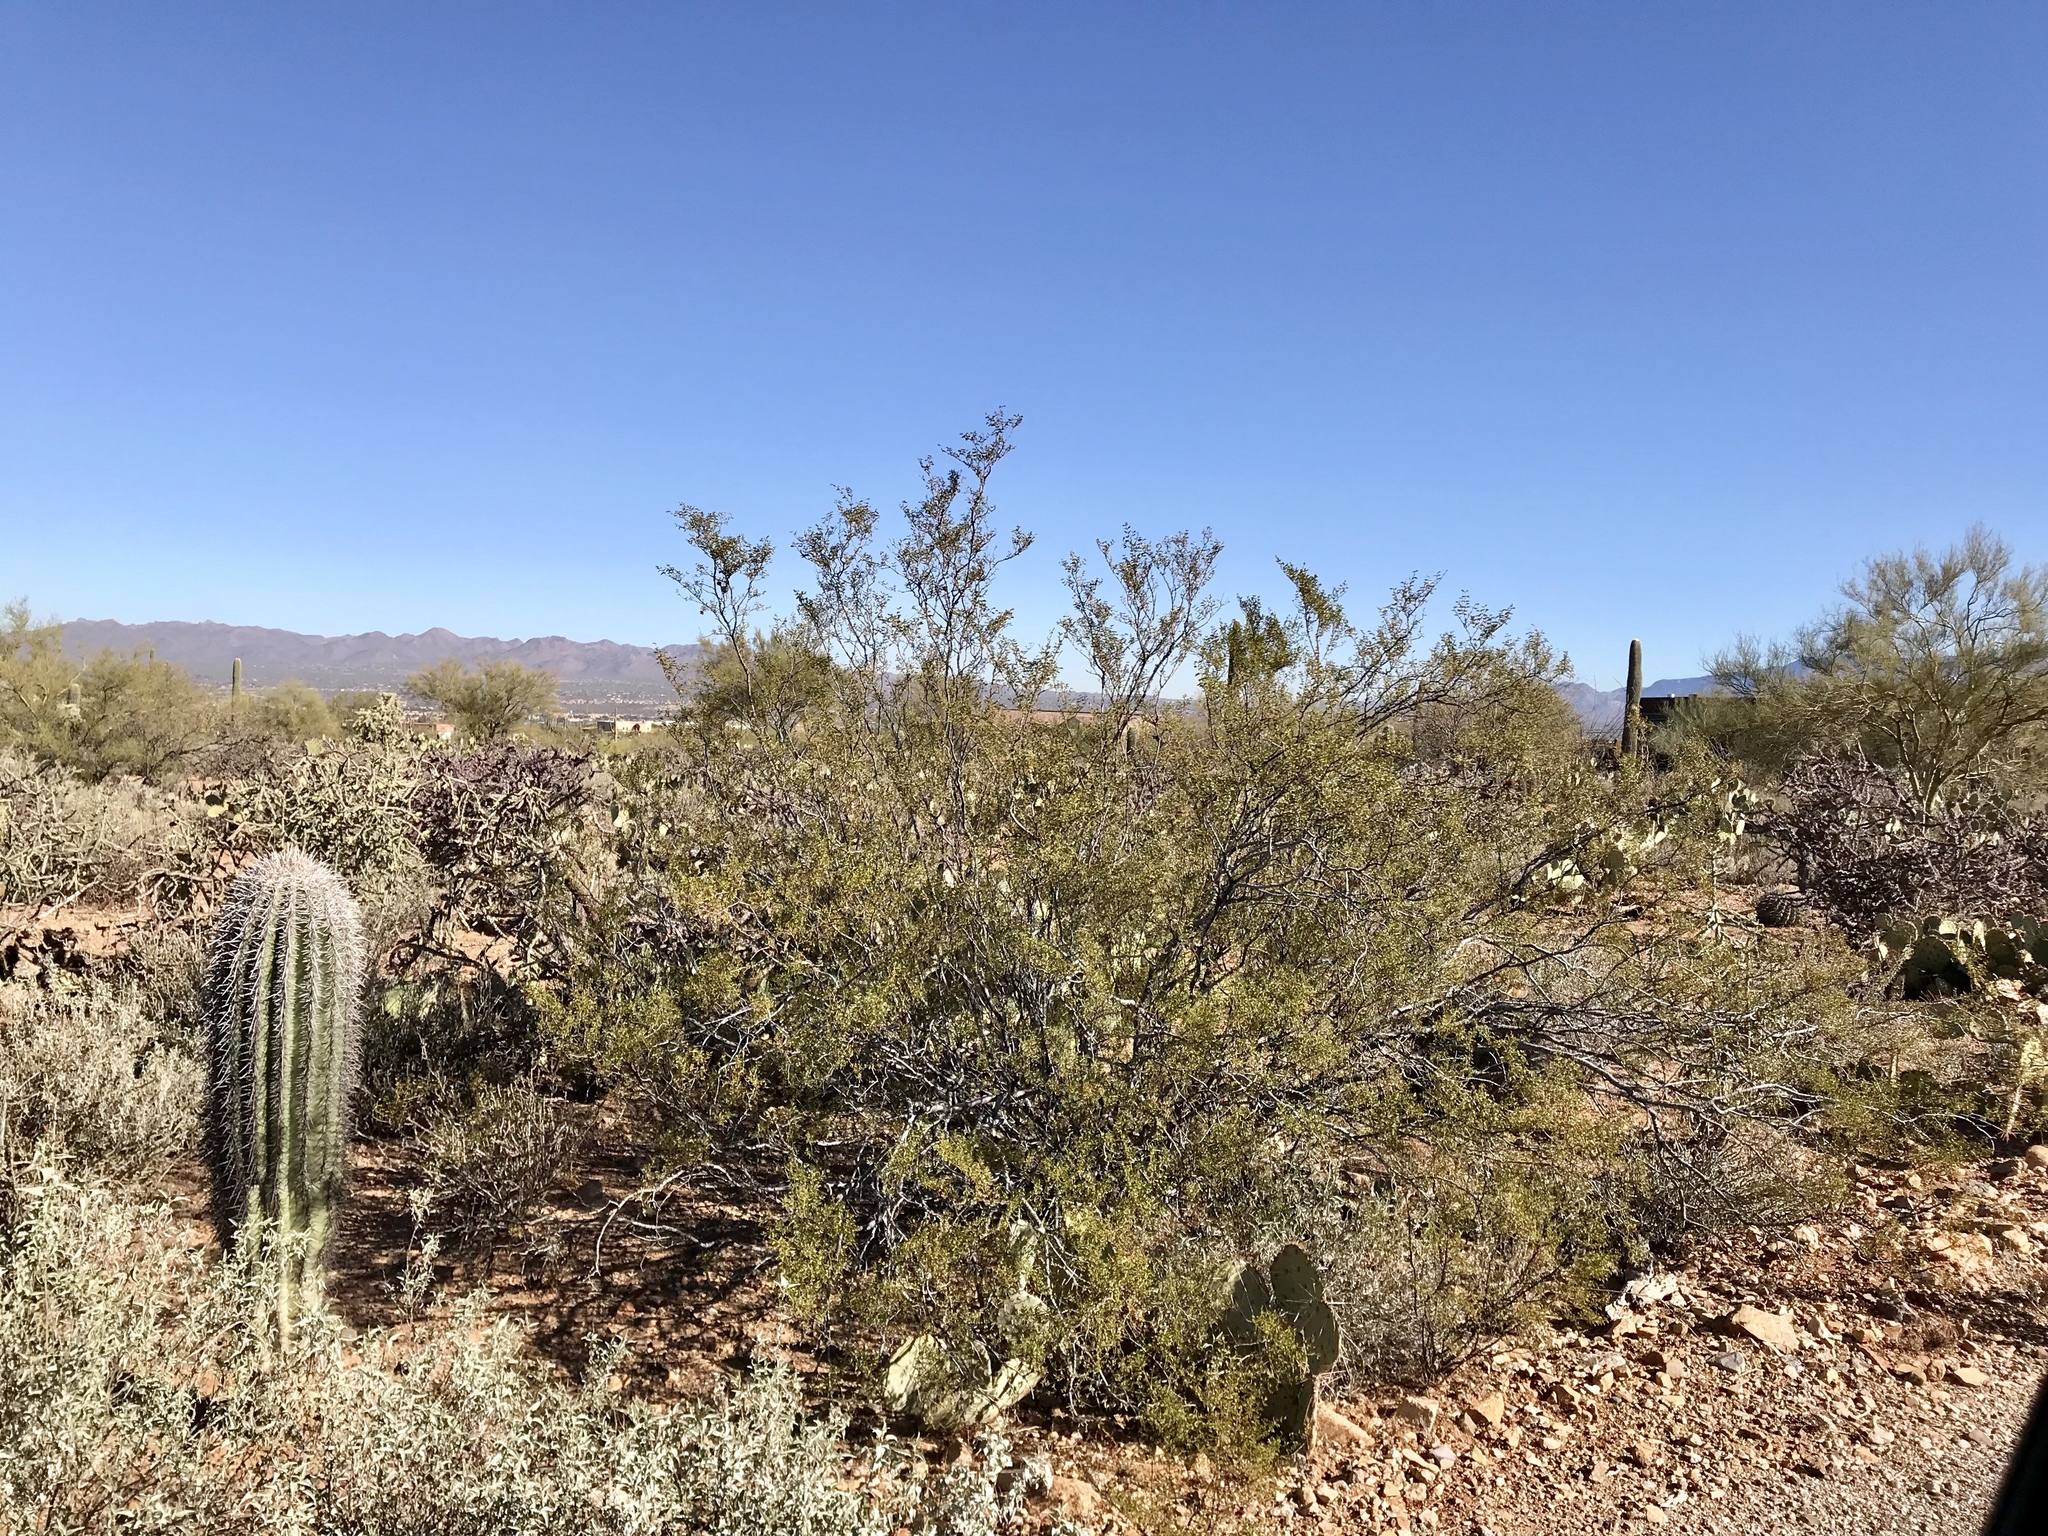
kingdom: Plantae
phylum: Tracheophyta
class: Magnoliopsida
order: Zygophyllales
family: Zygophyllaceae
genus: Larrea
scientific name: Larrea tridentata
